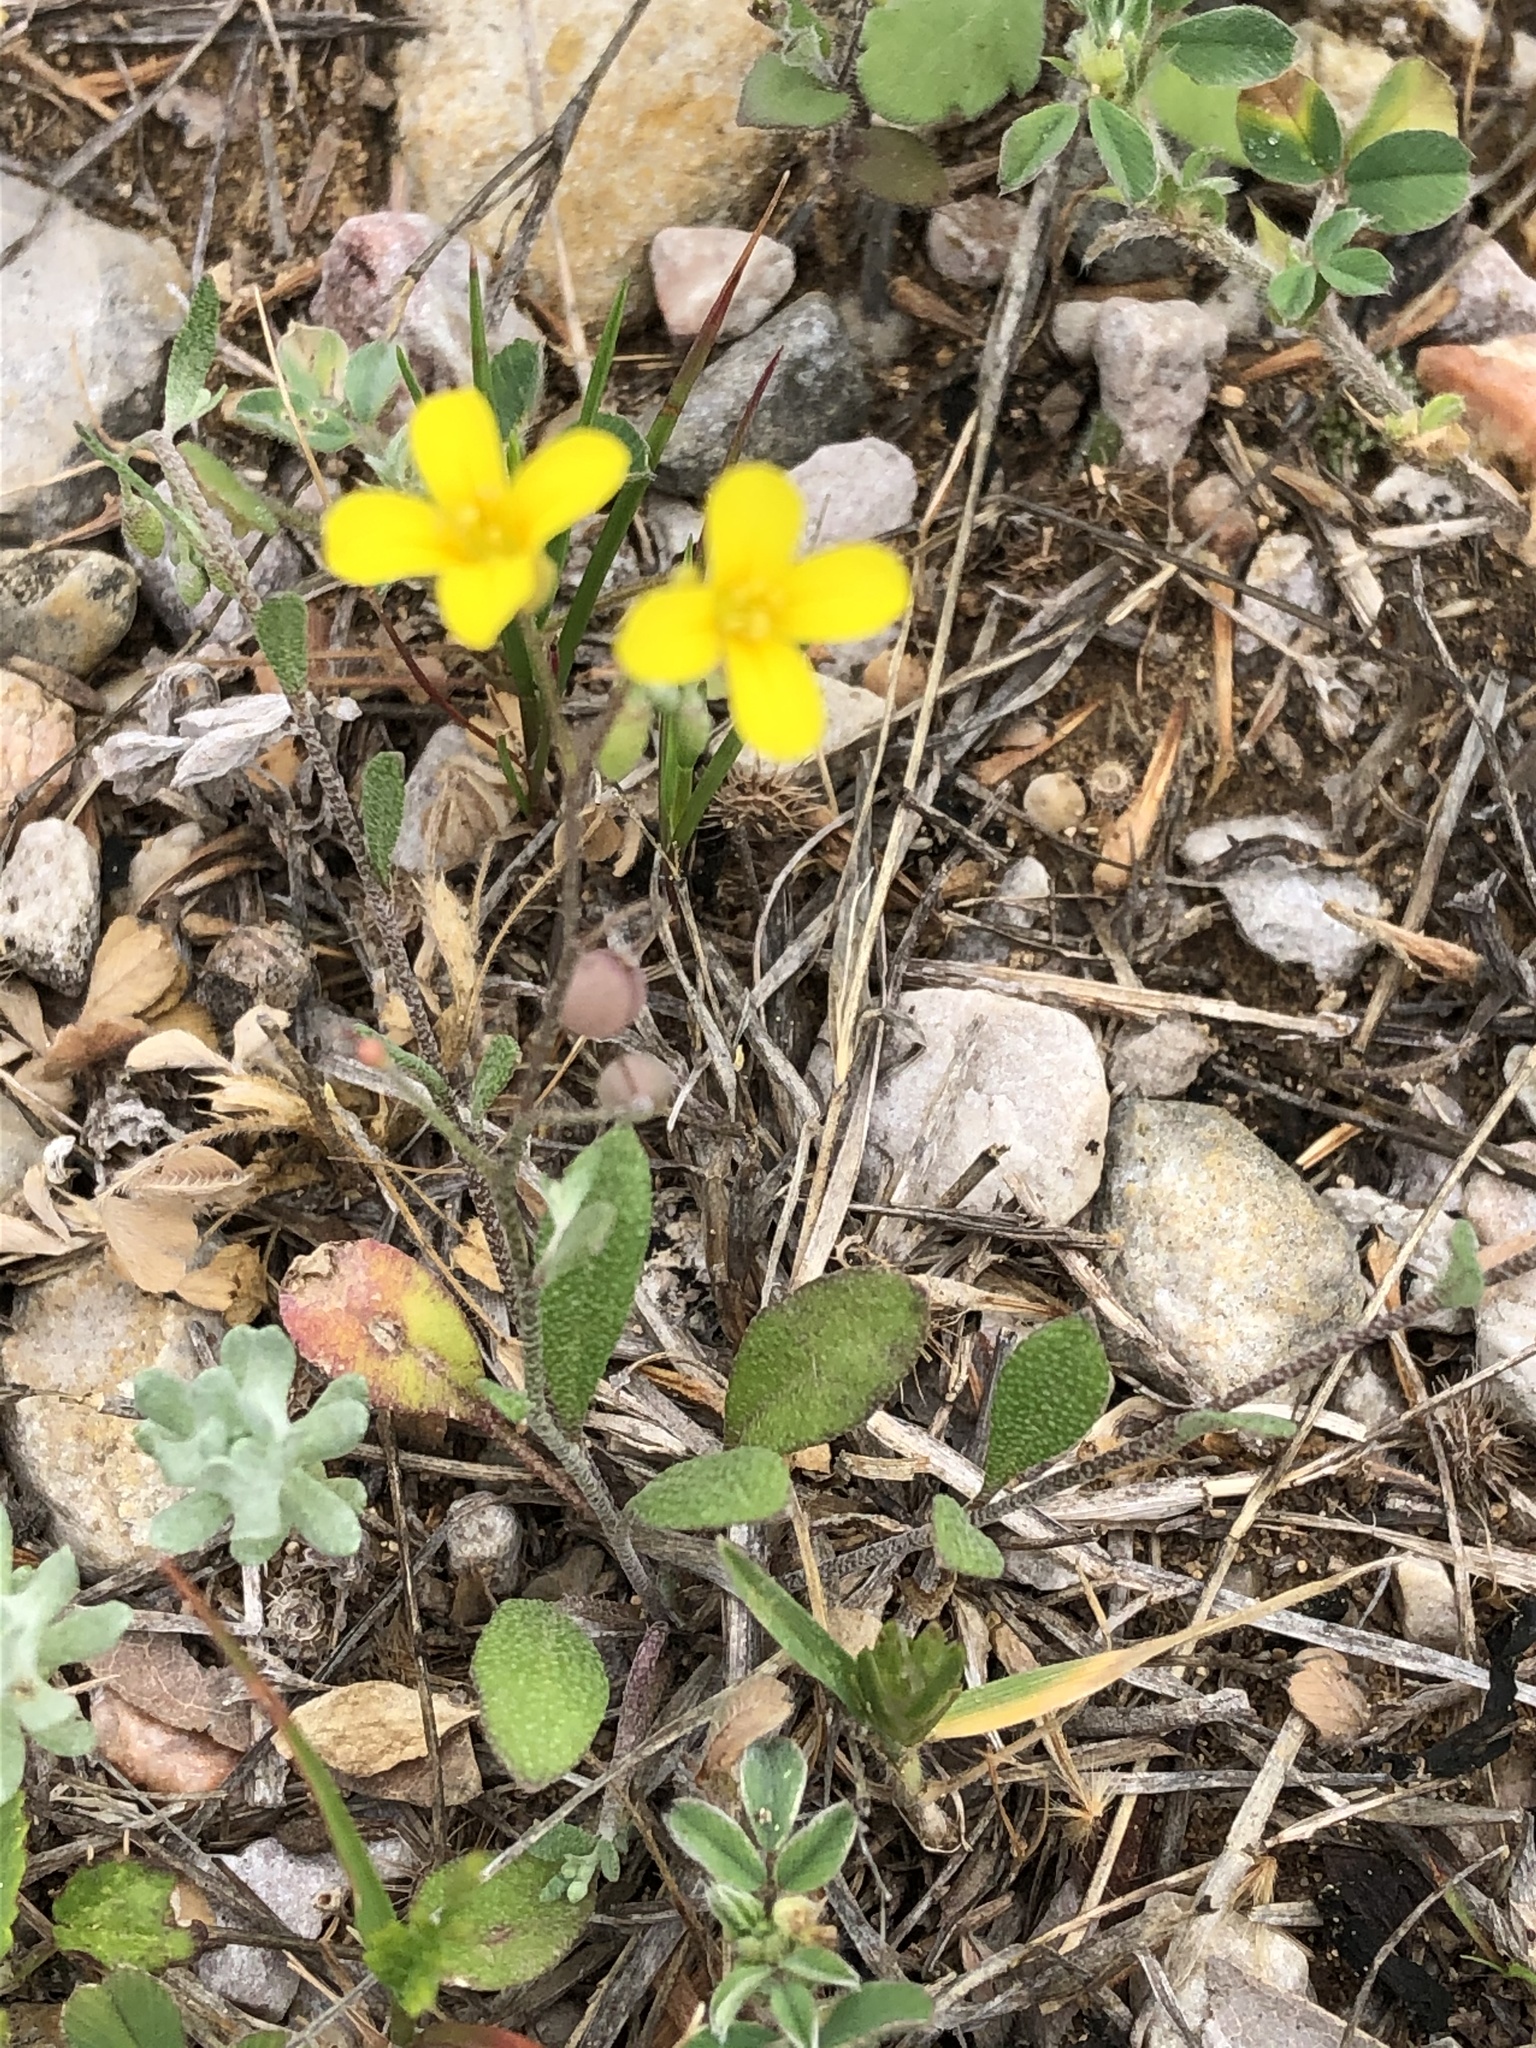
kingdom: Plantae
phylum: Tracheophyta
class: Magnoliopsida
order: Oxalidales
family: Oxalidaceae
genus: Oxalis
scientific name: Oxalis corniculata
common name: Procumbent yellow-sorrel
